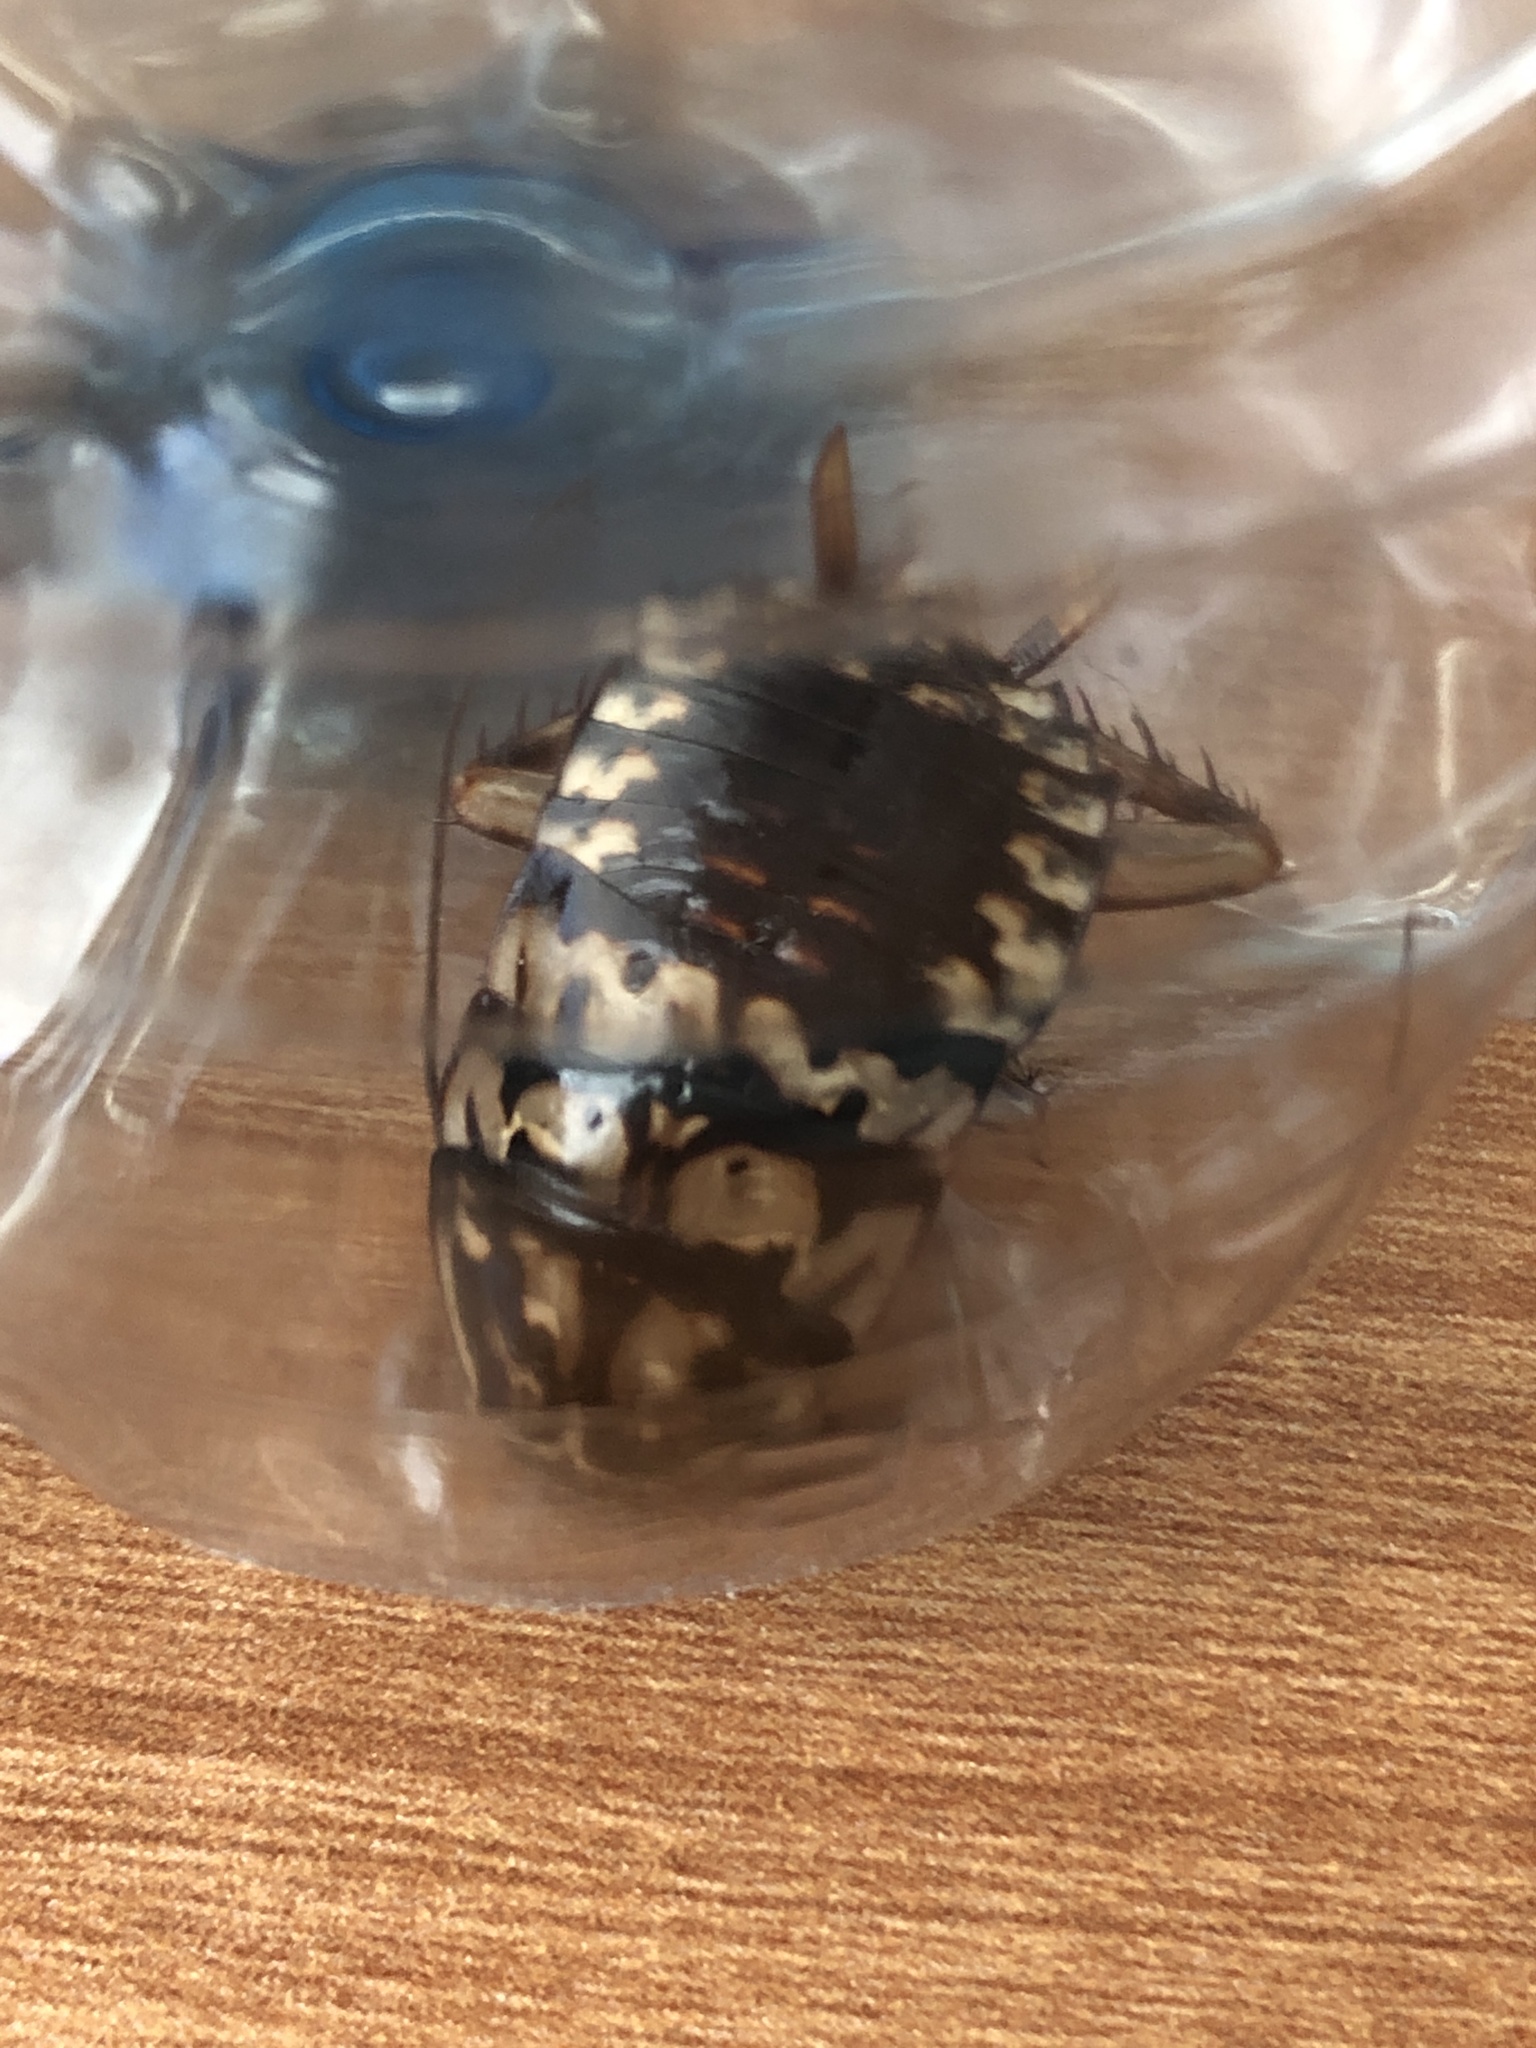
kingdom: Animalia
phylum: Arthropoda
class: Insecta
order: Blattodea
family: Blattidae
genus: Neostylopyga
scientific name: Neostylopyga rhombifolia
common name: Harlequin cockroach
